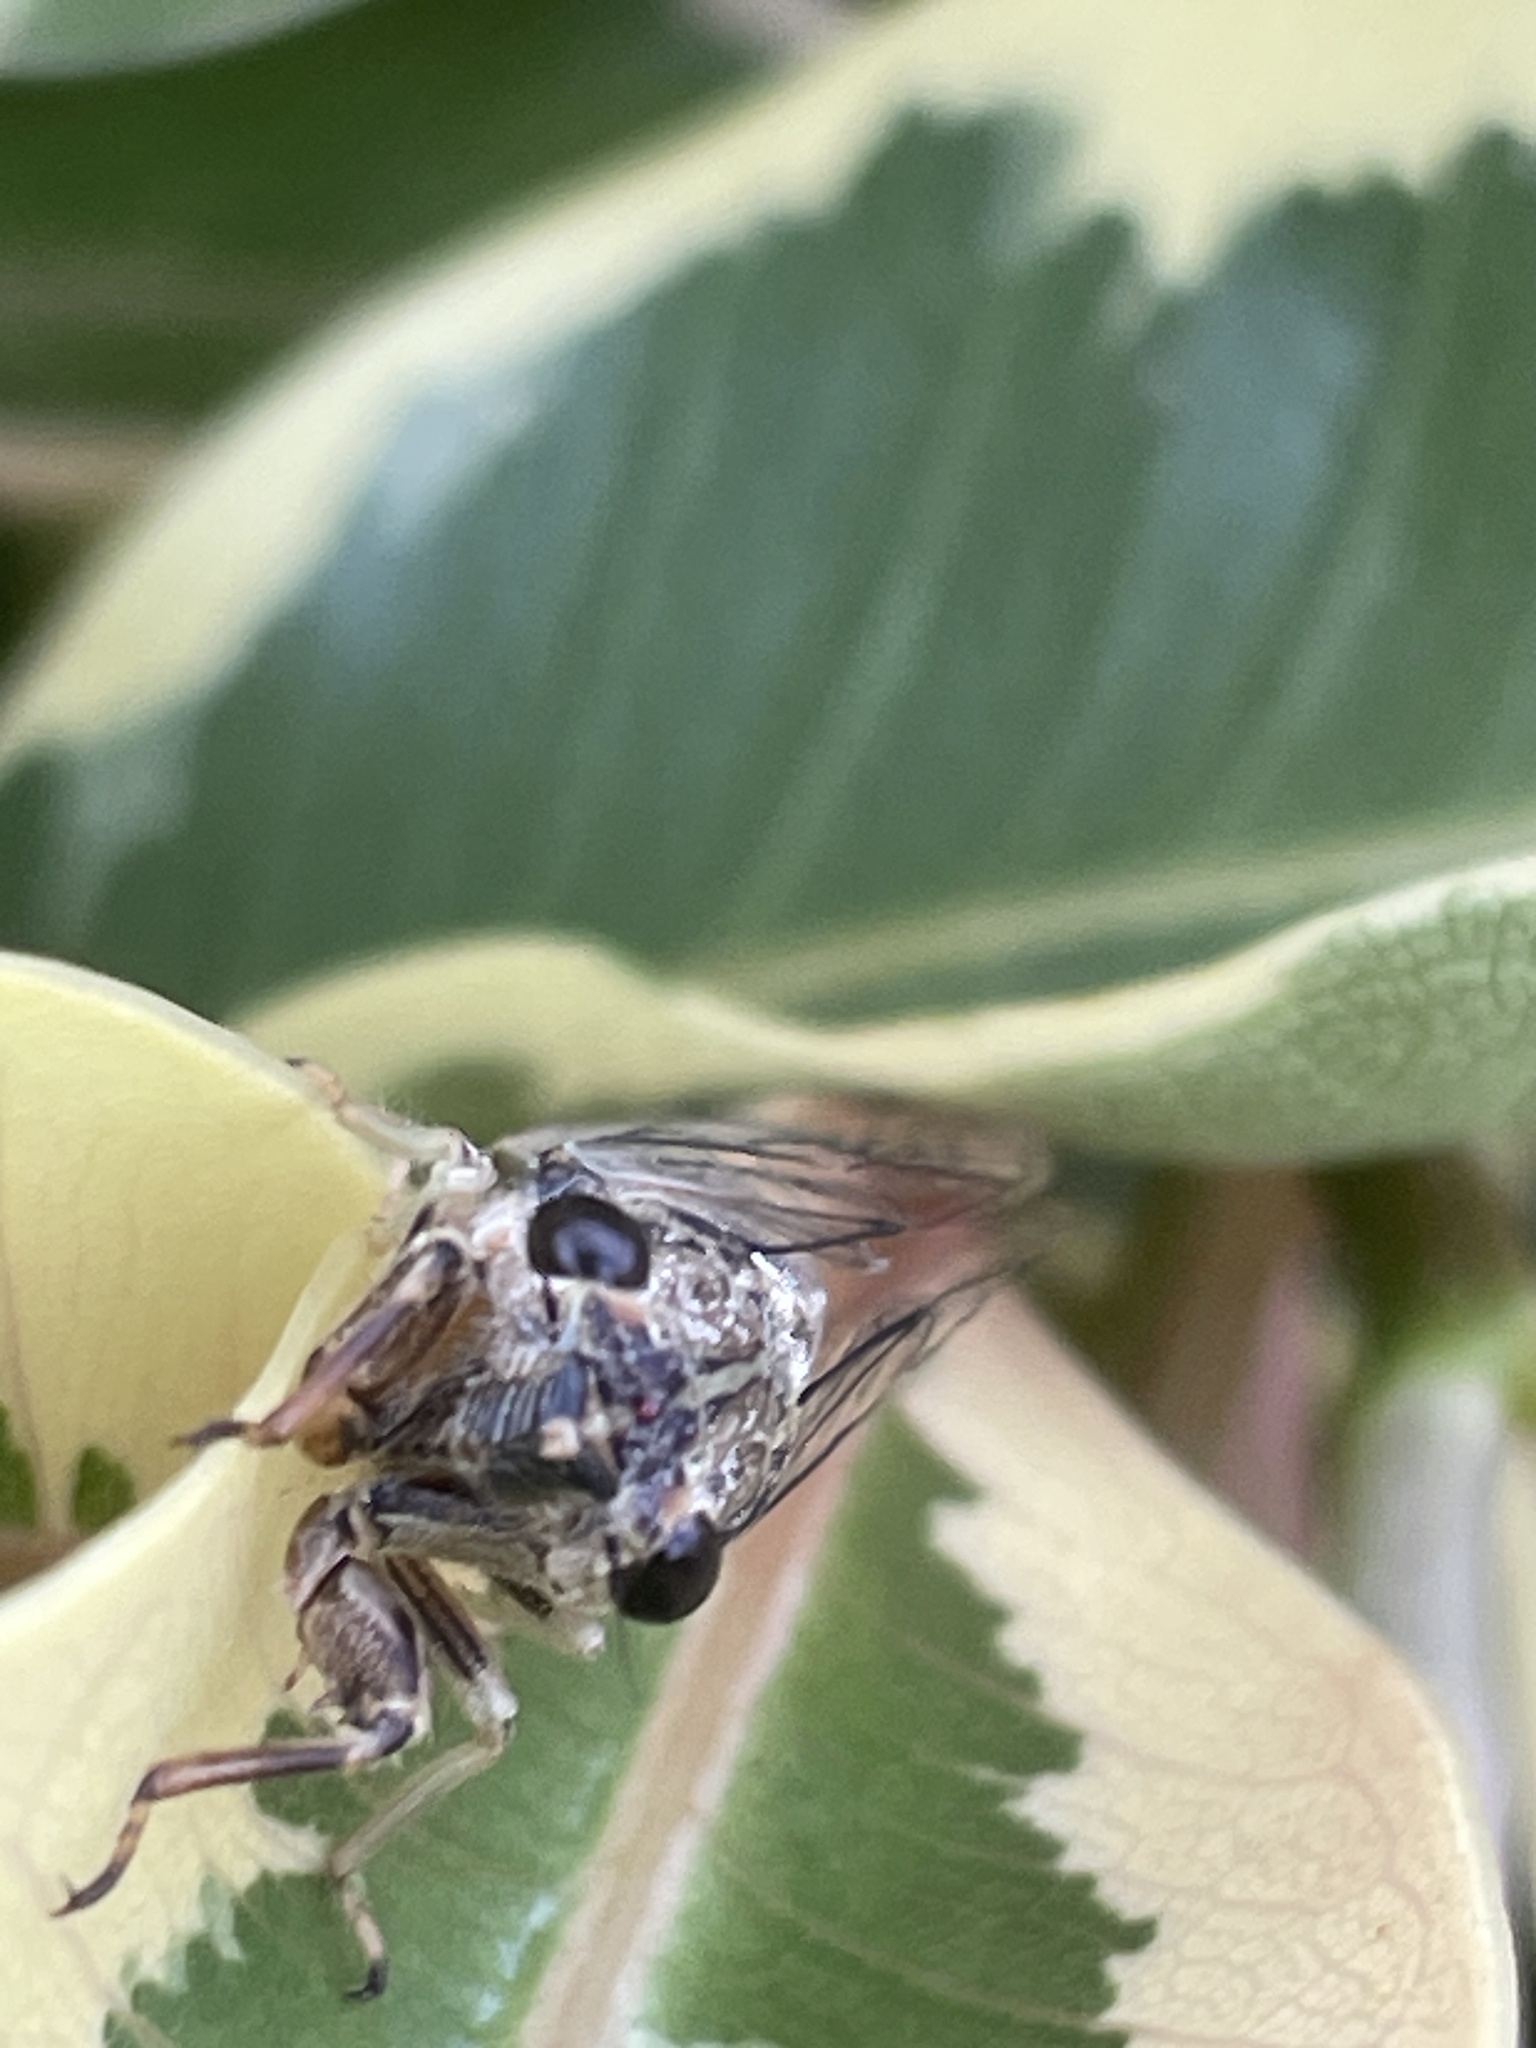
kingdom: Animalia
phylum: Arthropoda
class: Insecta
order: Hemiptera
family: Cicadidae
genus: Yoyetta
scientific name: Yoyetta celis
